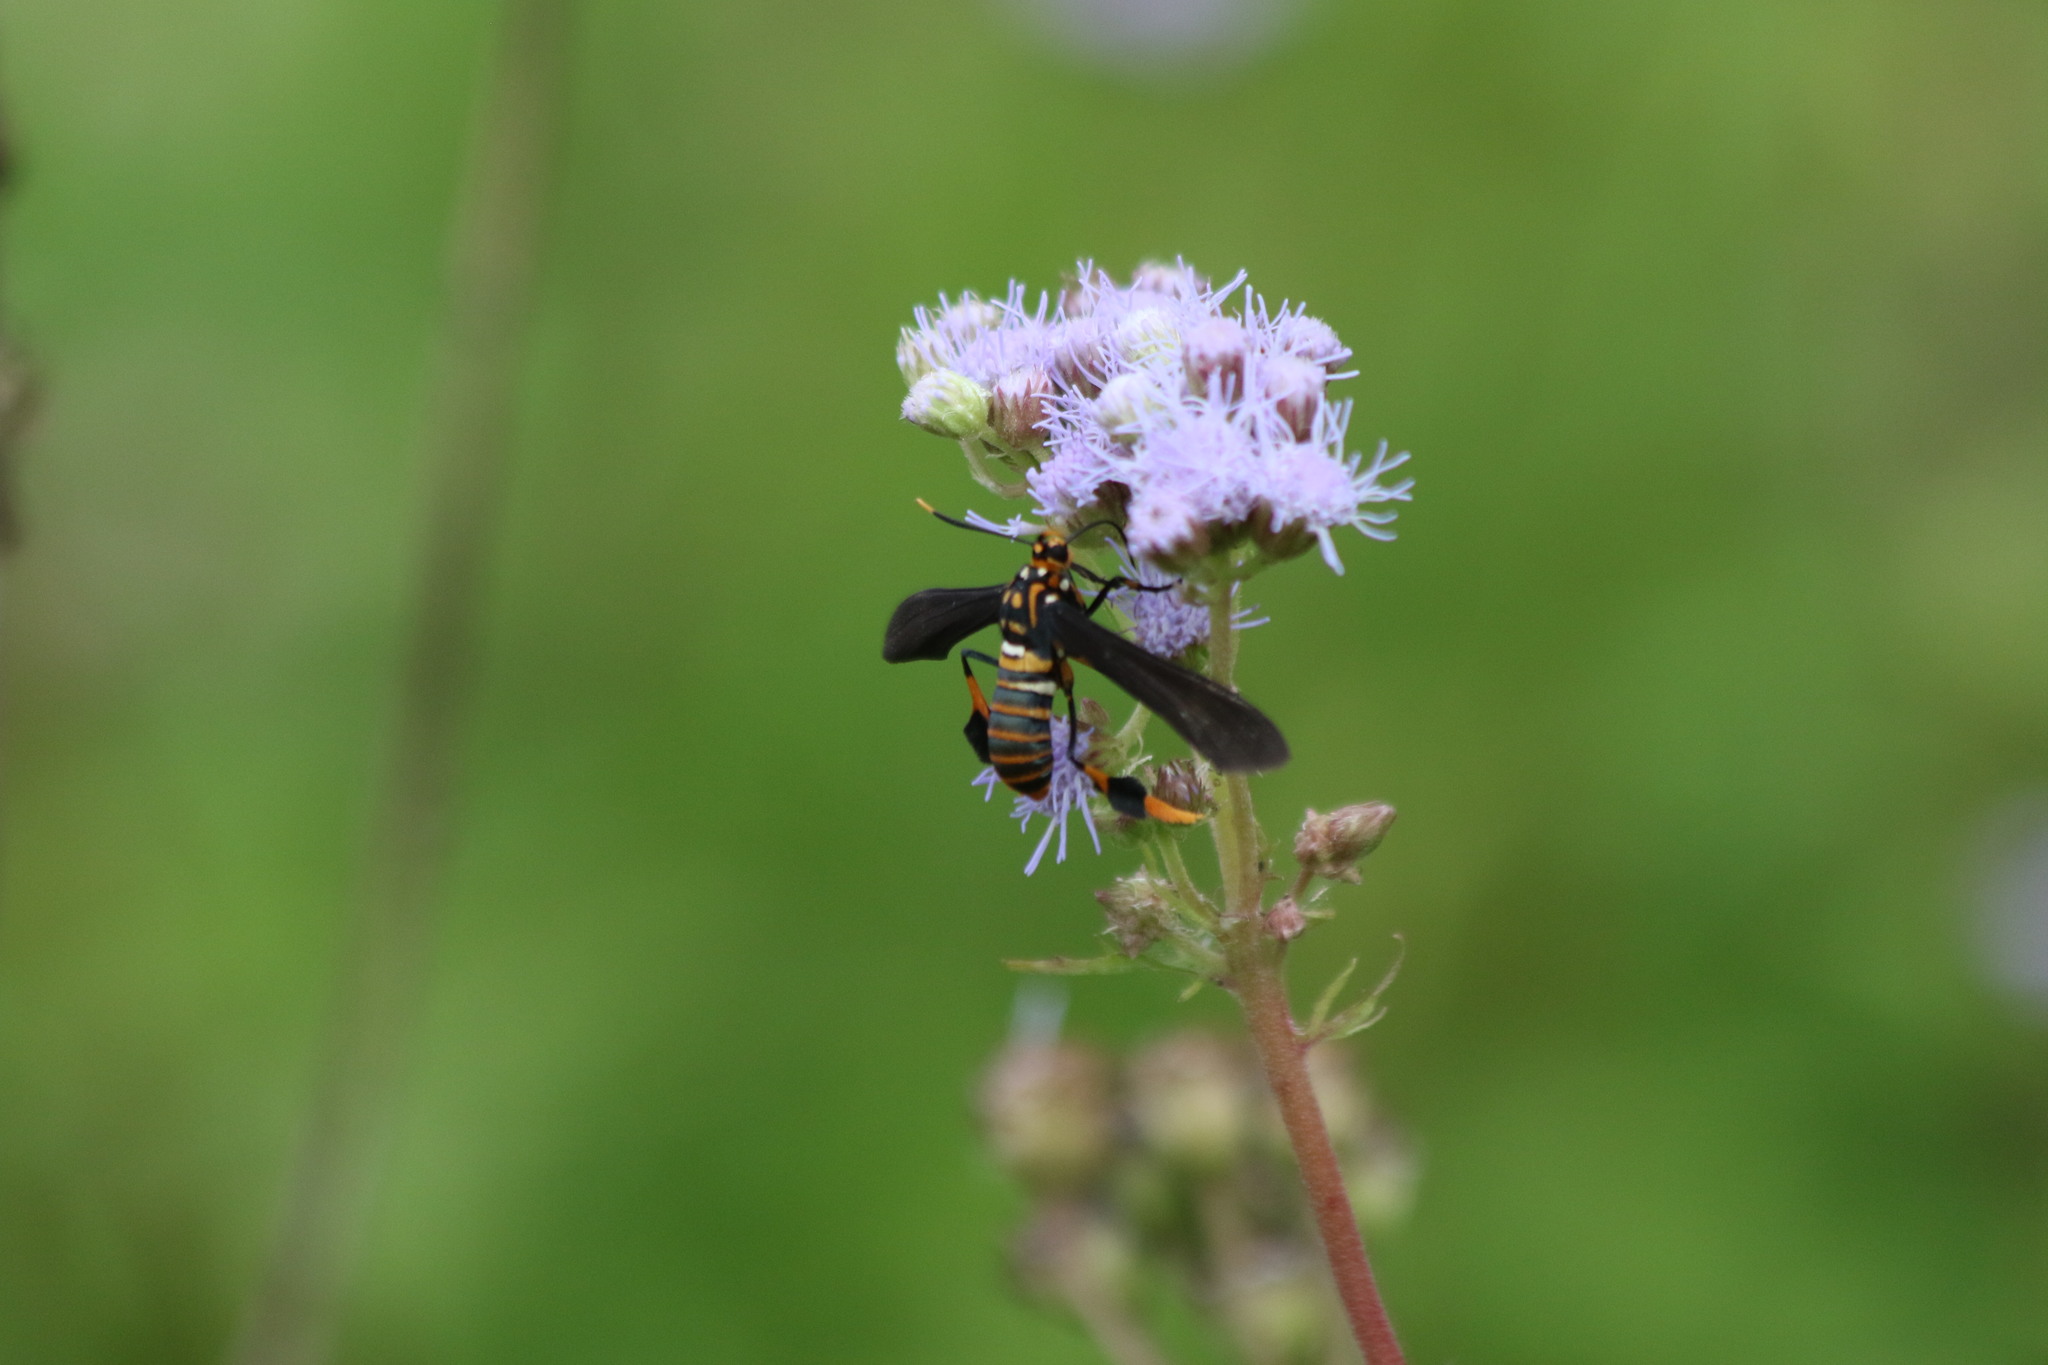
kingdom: Animalia
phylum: Arthropoda
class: Insecta
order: Lepidoptera
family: Erebidae
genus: Horama
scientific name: Horama panthalon
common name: Texas wasp moth
